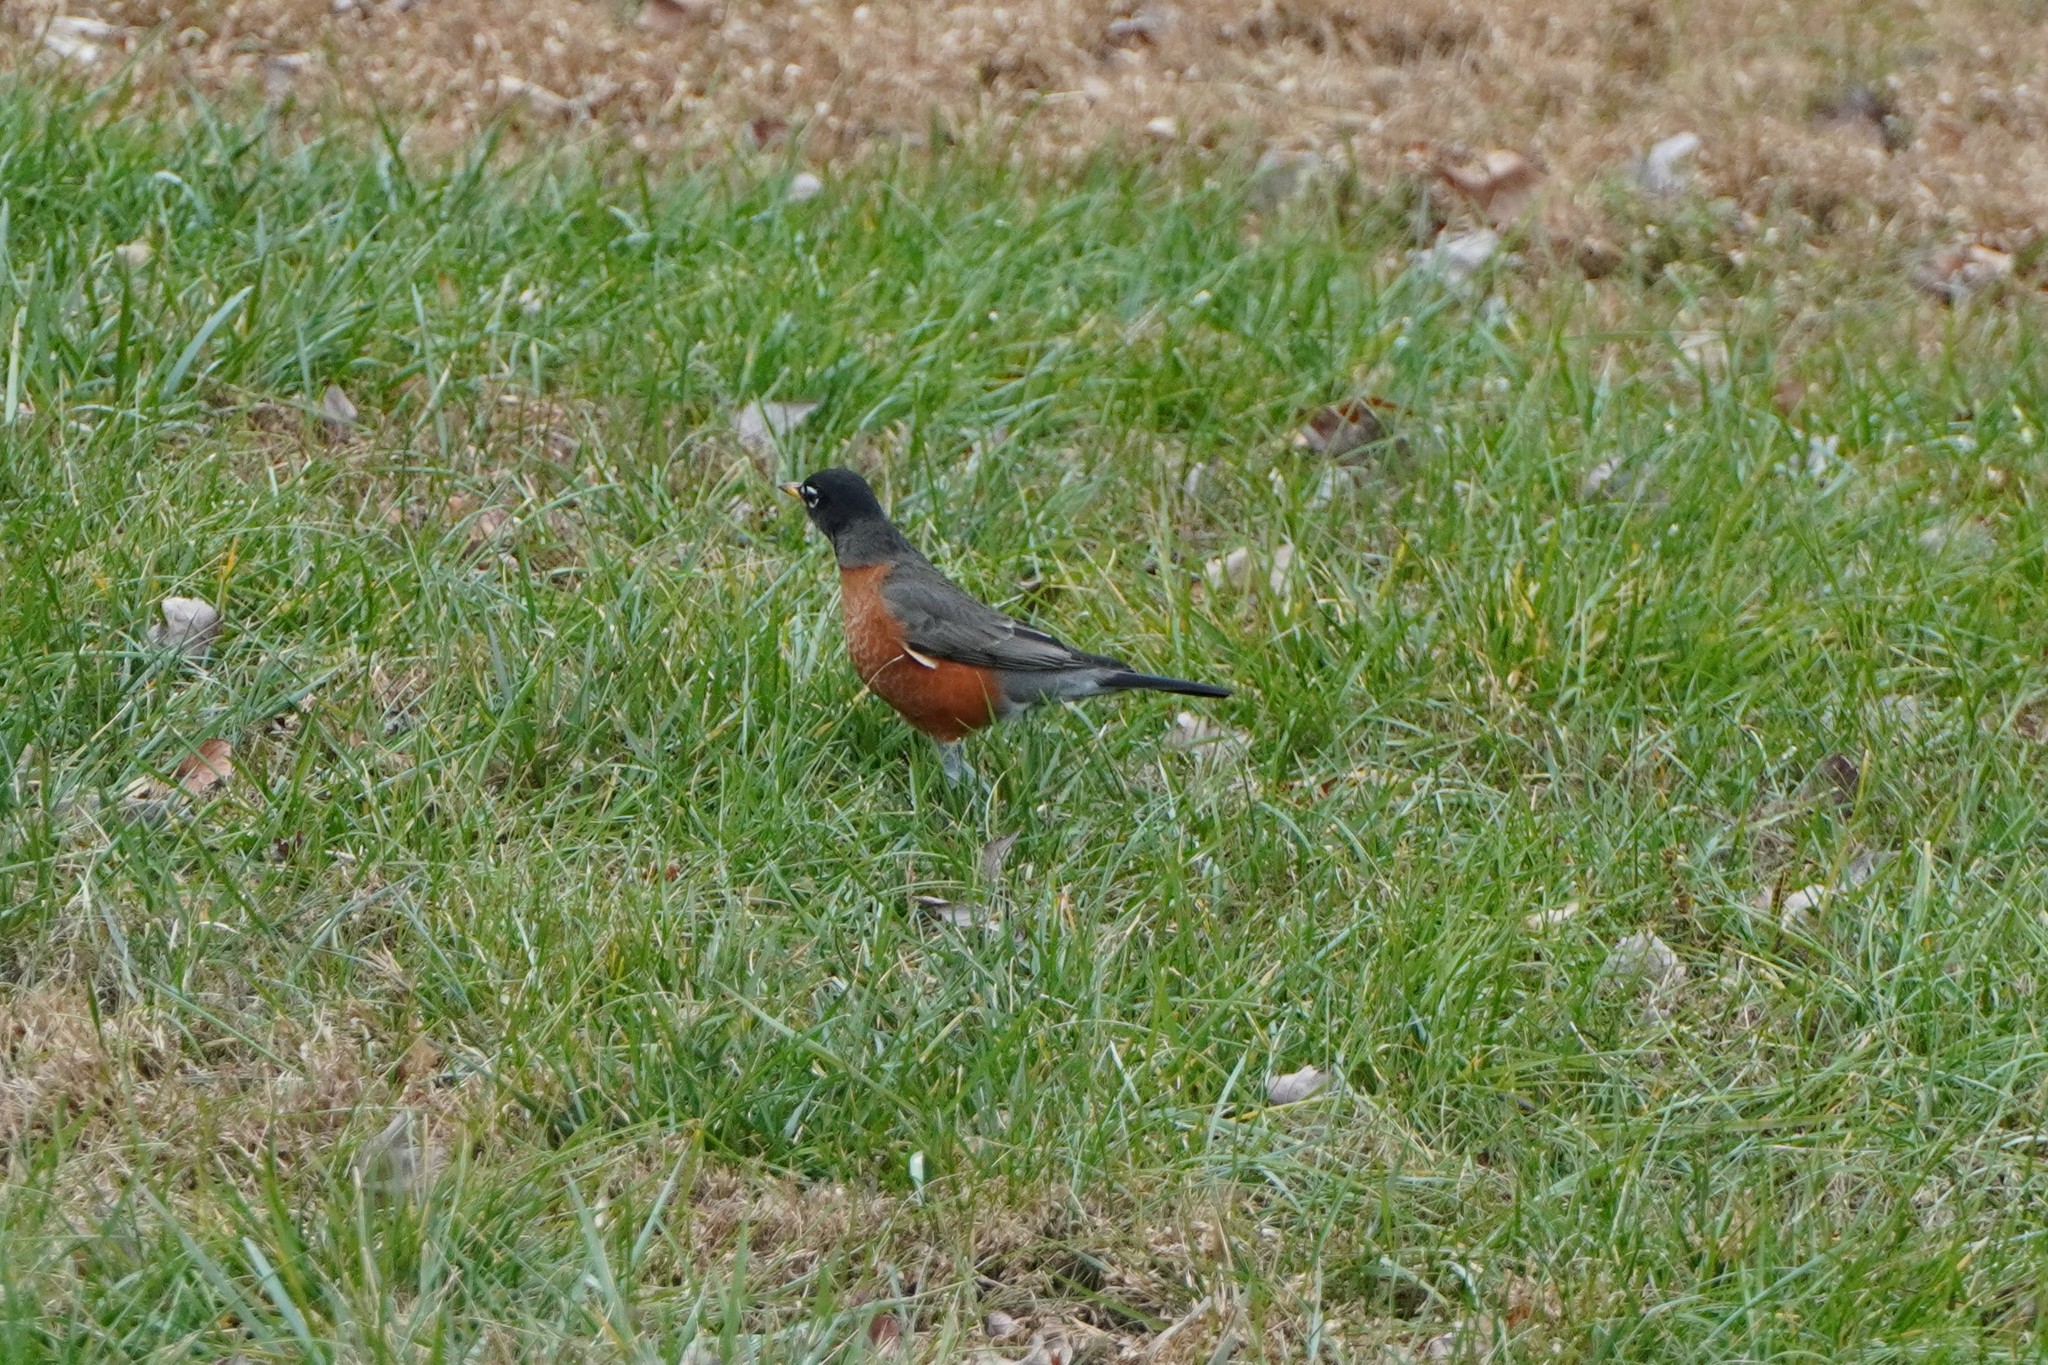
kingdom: Animalia
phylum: Chordata
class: Aves
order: Passeriformes
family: Turdidae
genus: Turdus
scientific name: Turdus migratorius
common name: American robin
